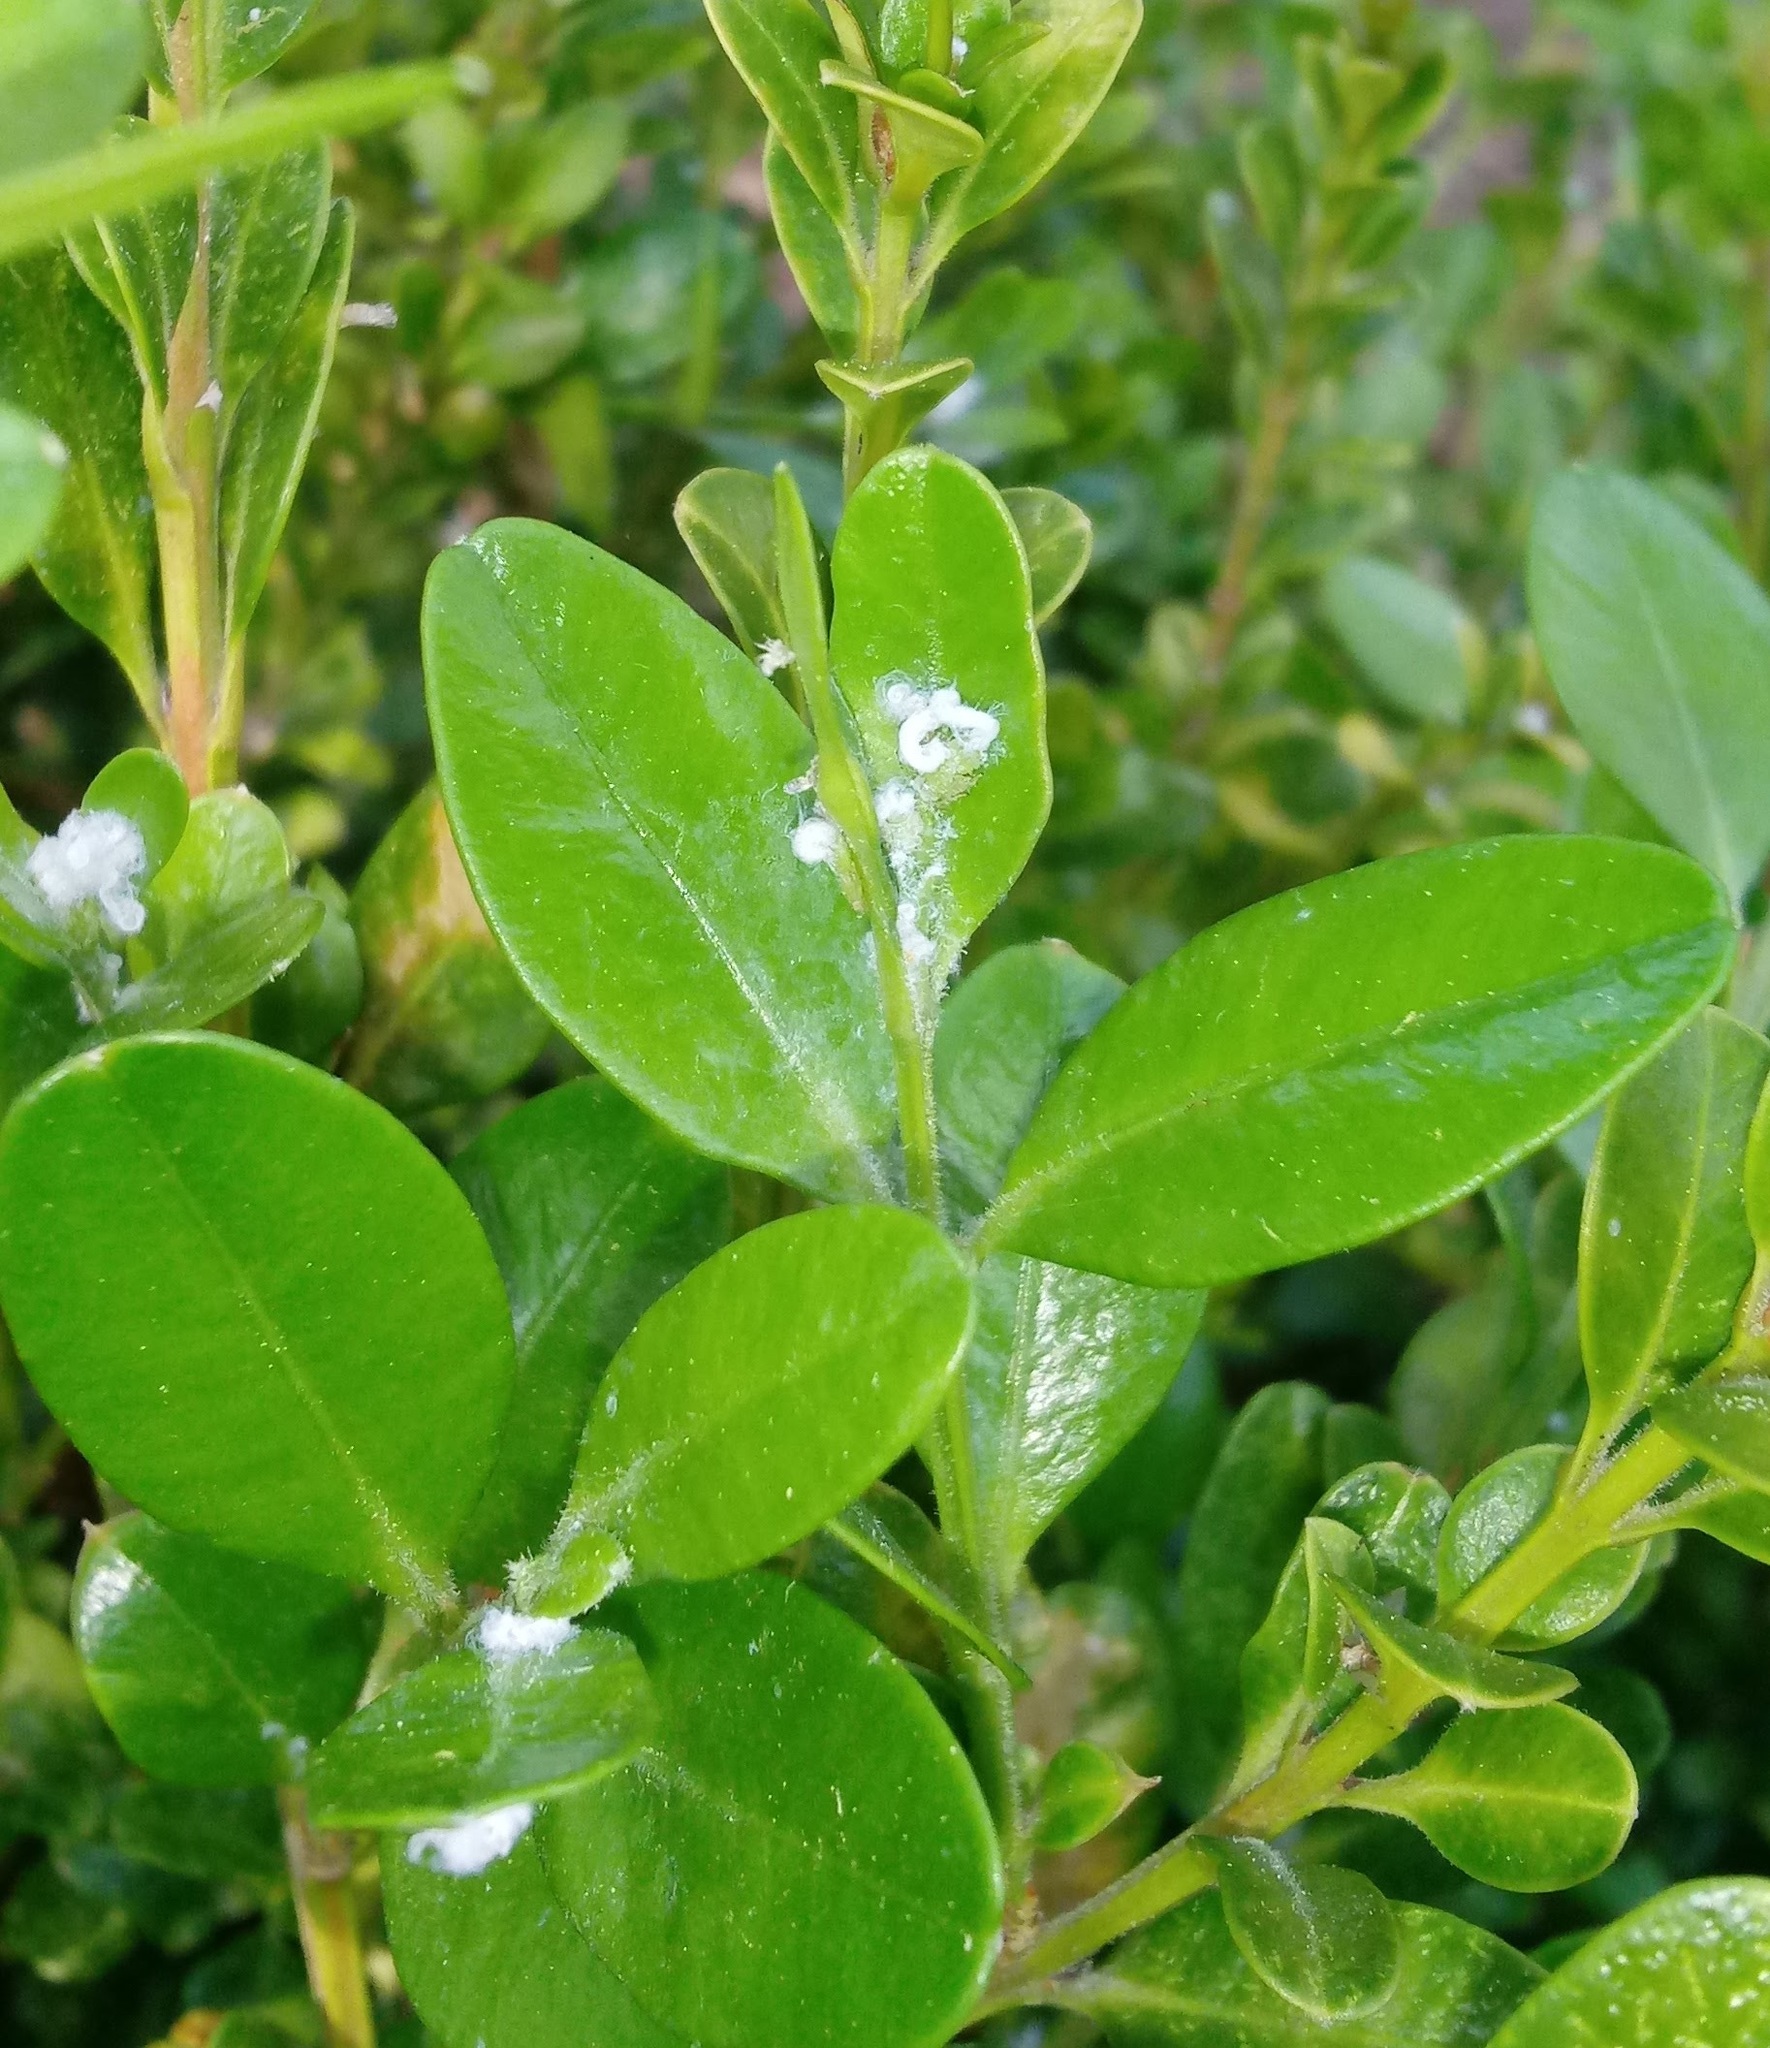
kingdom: Animalia
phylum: Arthropoda
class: Insecta
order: Hemiptera
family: Psyllidae
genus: Psylla
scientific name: Psylla buxi
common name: Boxwood psyllid
